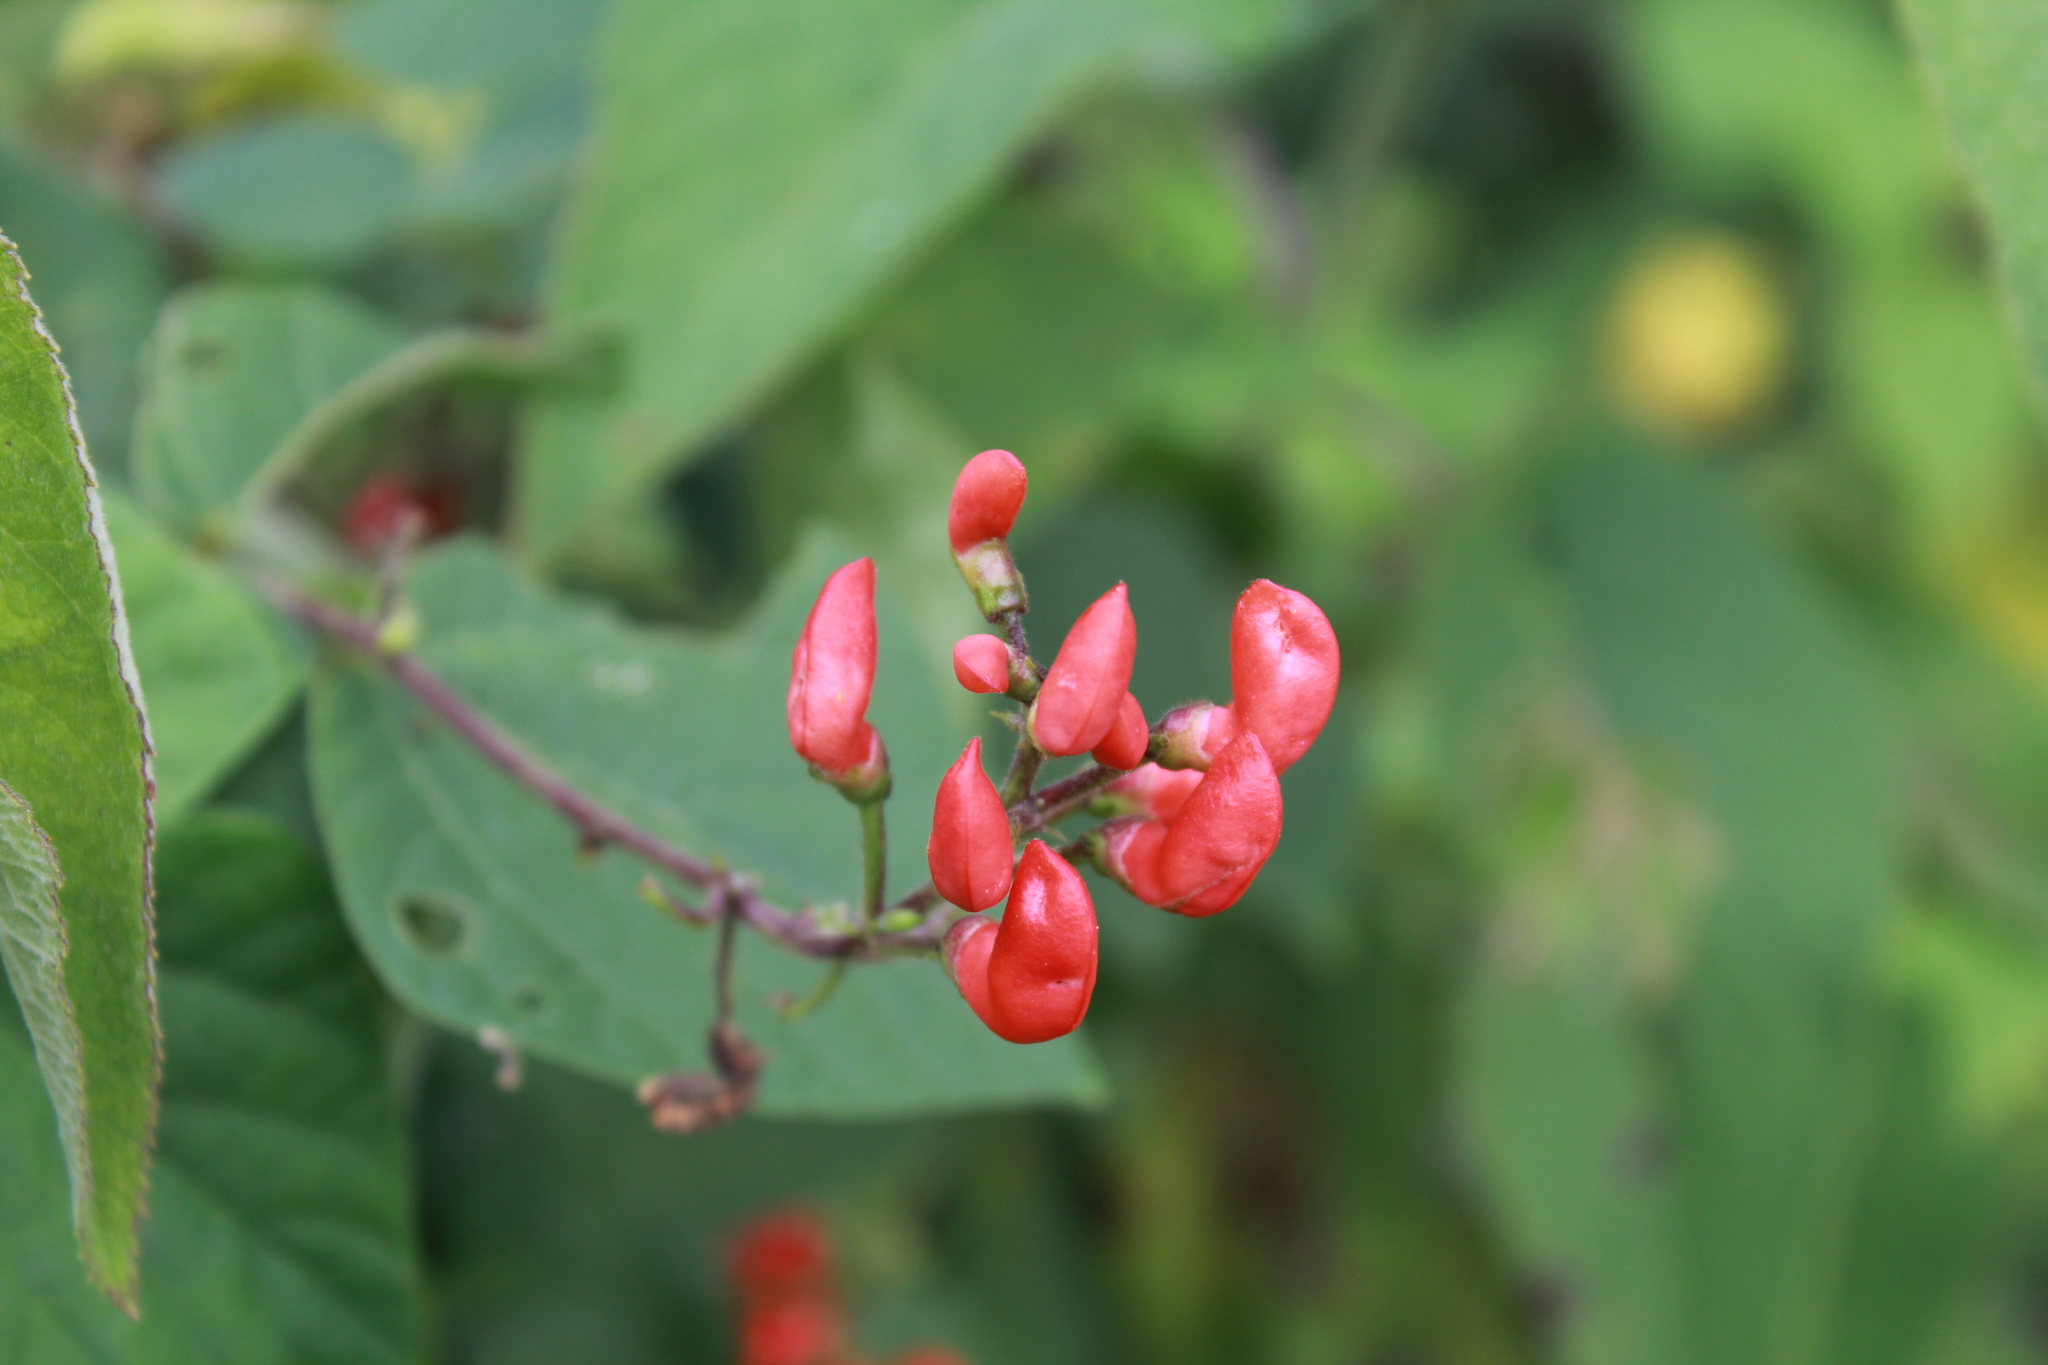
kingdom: Plantae
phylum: Tracheophyta
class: Magnoliopsida
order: Fabales
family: Fabaceae
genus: Phaseolus
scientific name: Phaseolus coccineus
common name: Runner bean
